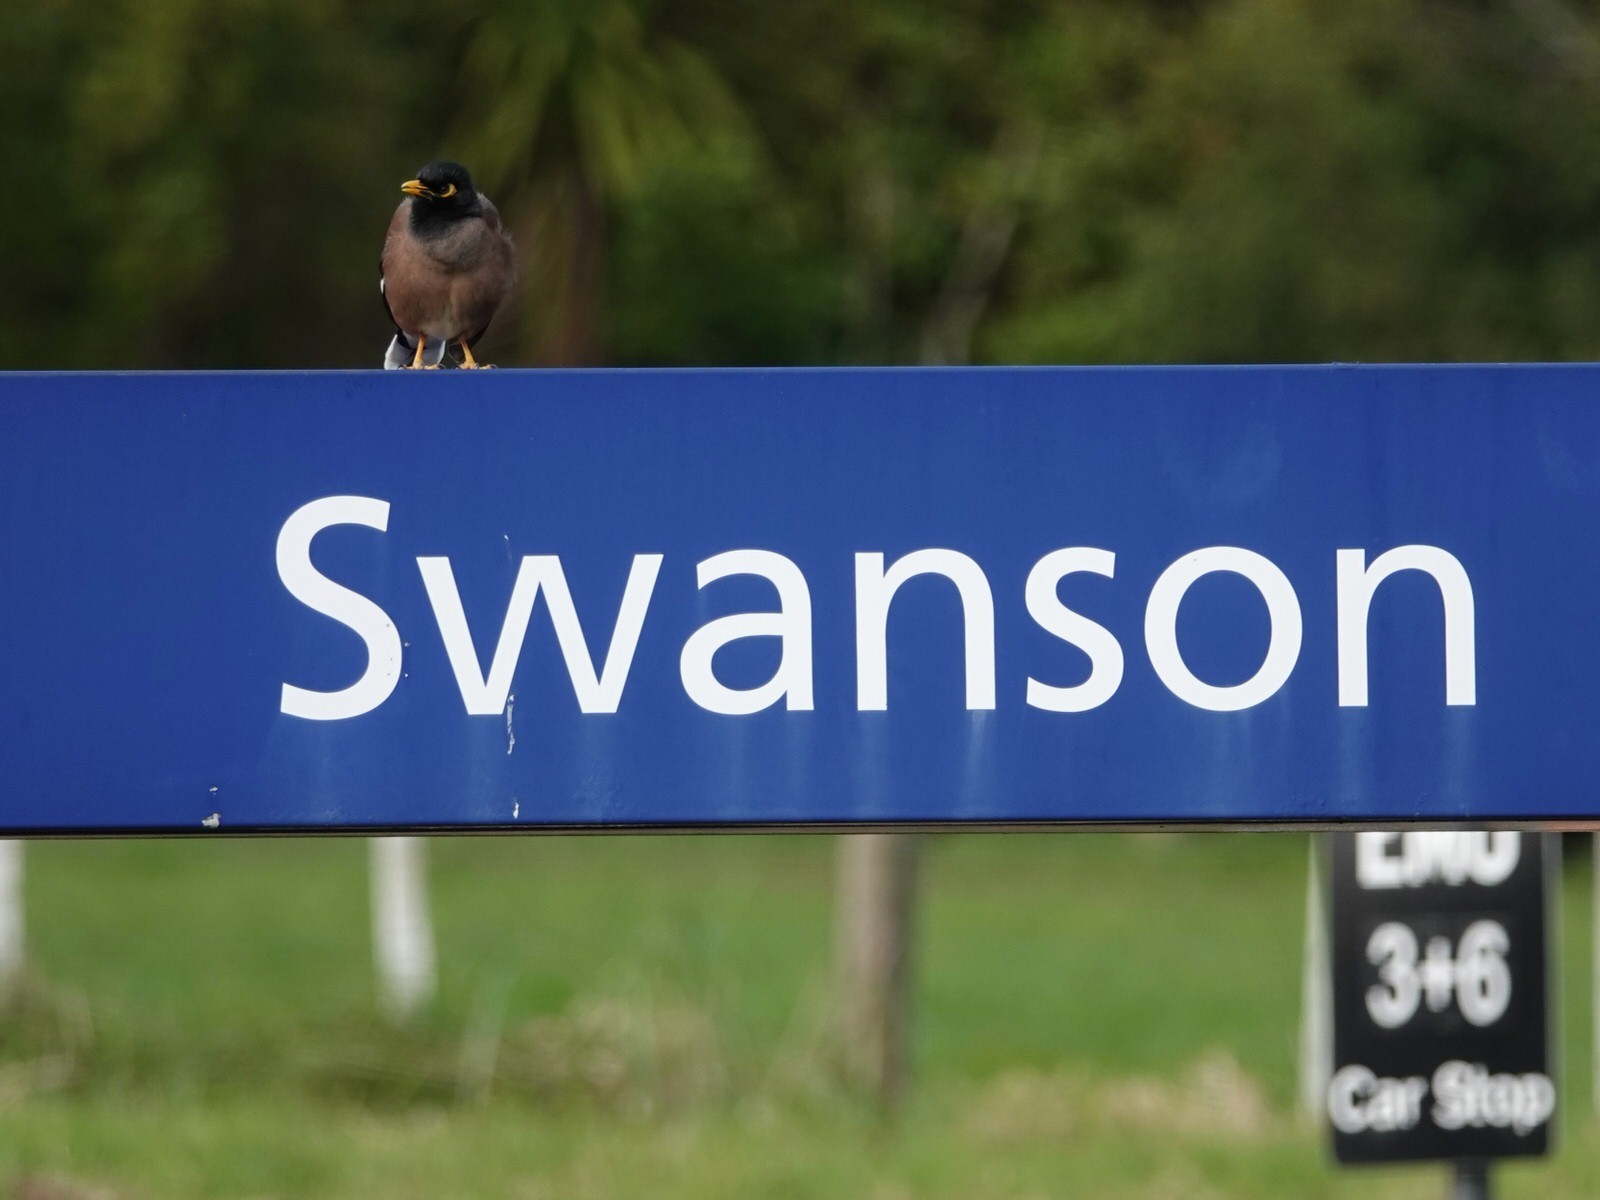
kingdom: Animalia
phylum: Chordata
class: Aves
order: Passeriformes
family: Sturnidae
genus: Acridotheres
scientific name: Acridotheres tristis
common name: Common myna
